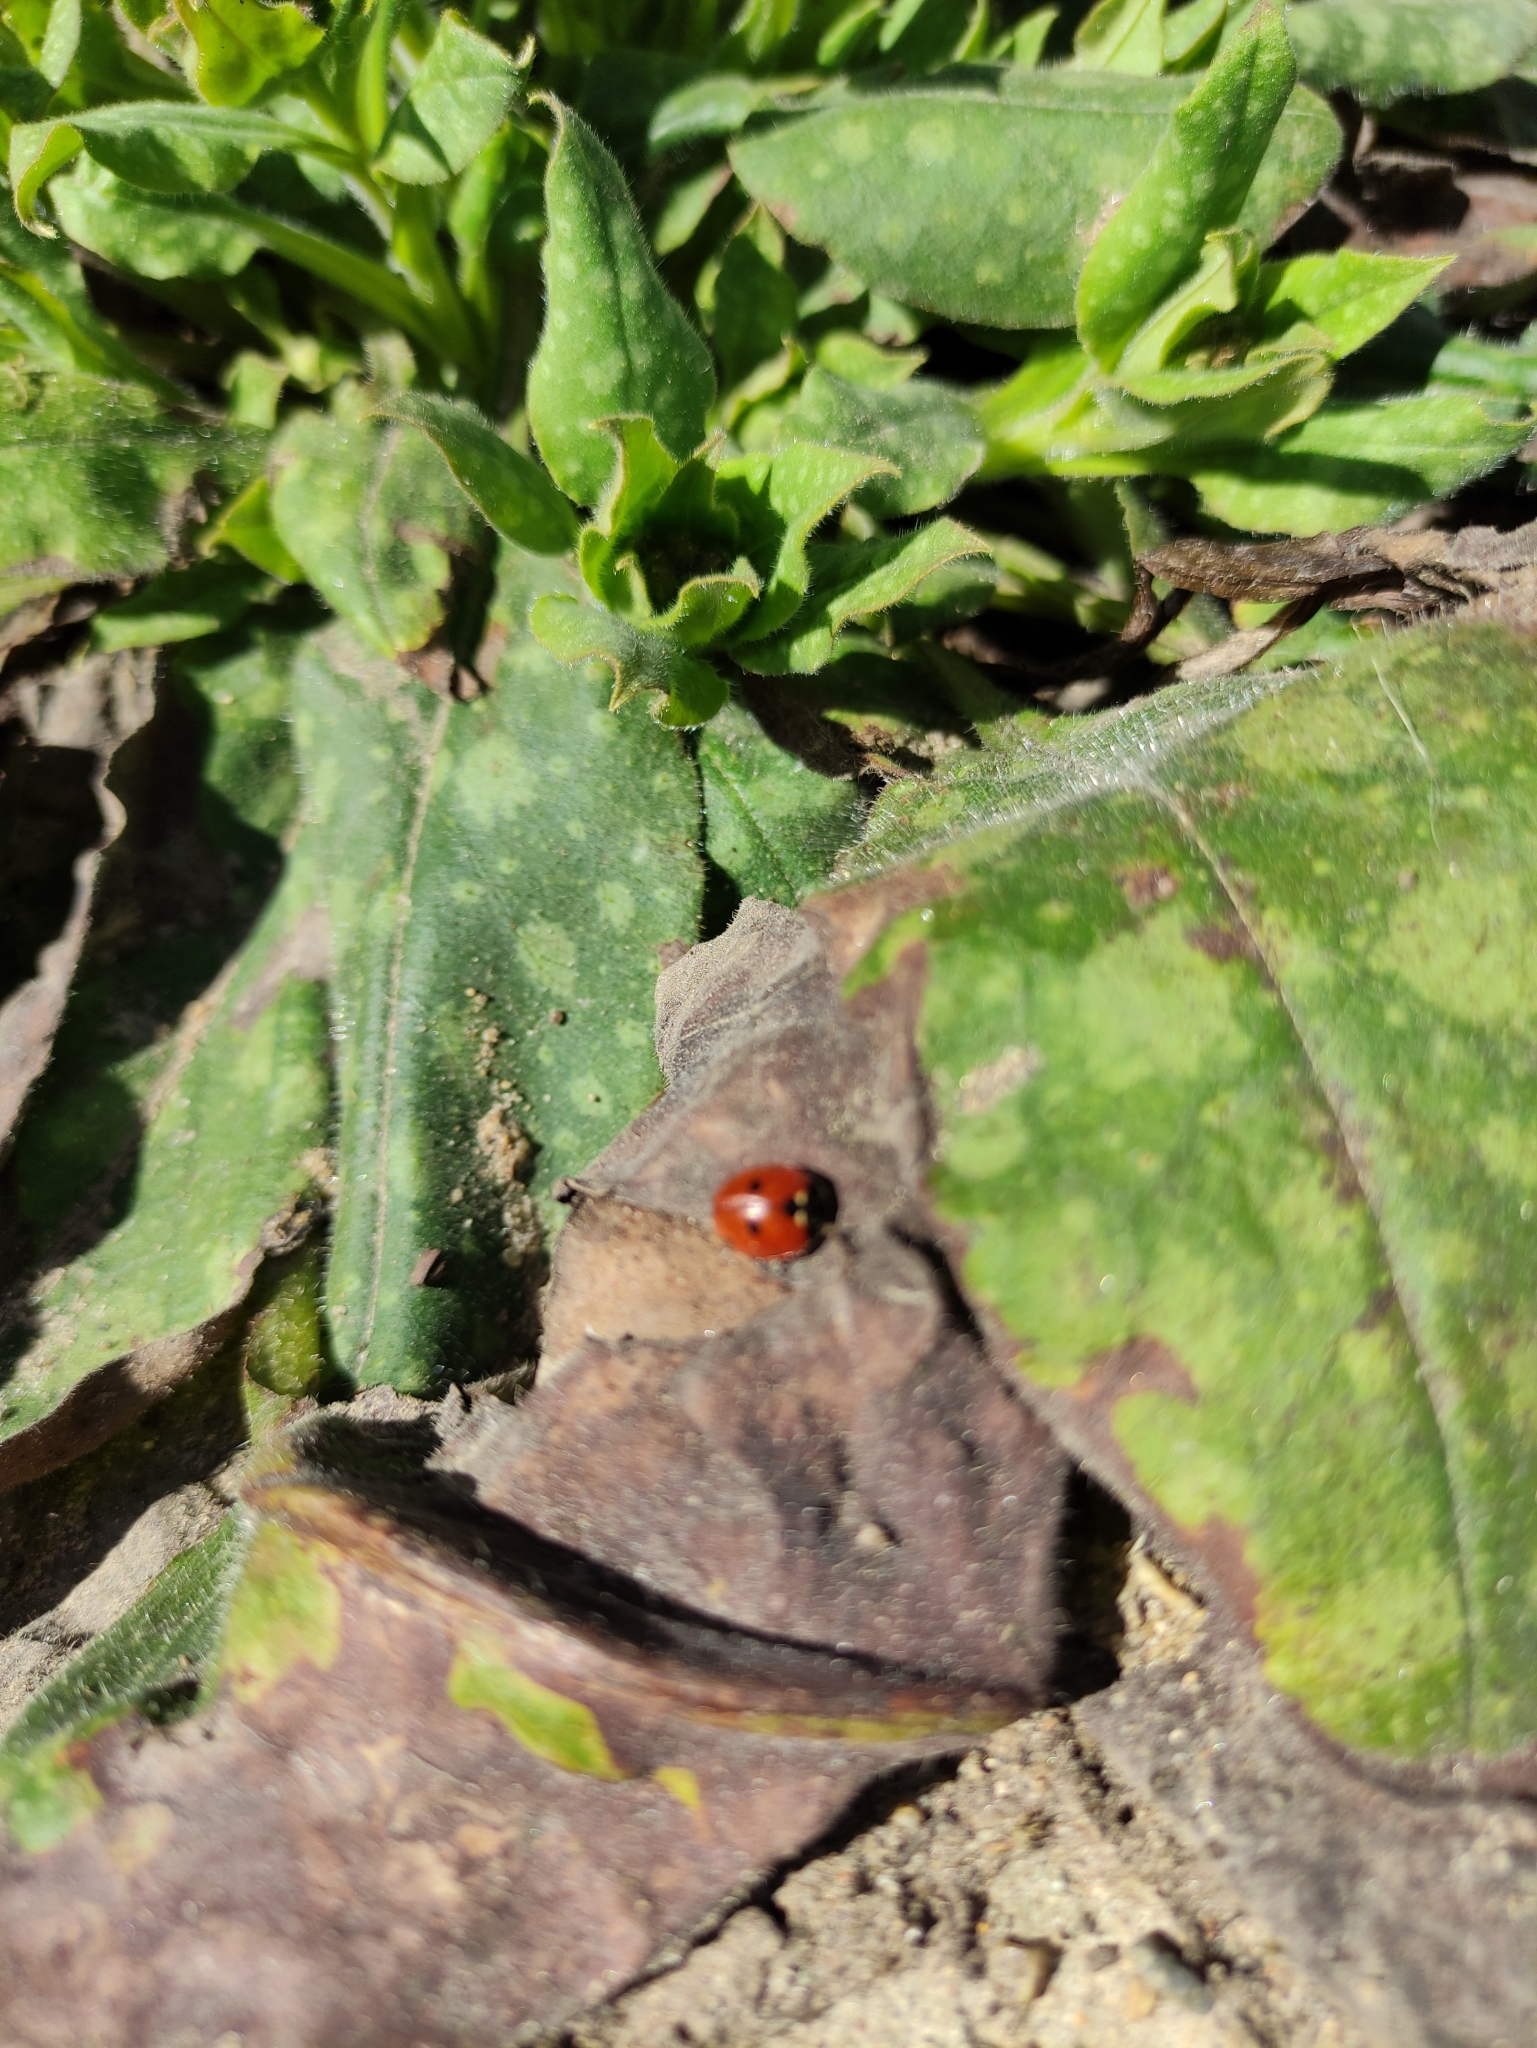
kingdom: Animalia
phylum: Arthropoda
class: Insecta
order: Coleoptera
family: Coccinellidae
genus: Coccinella
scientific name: Coccinella septempunctata
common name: Sevenspotted lady beetle
